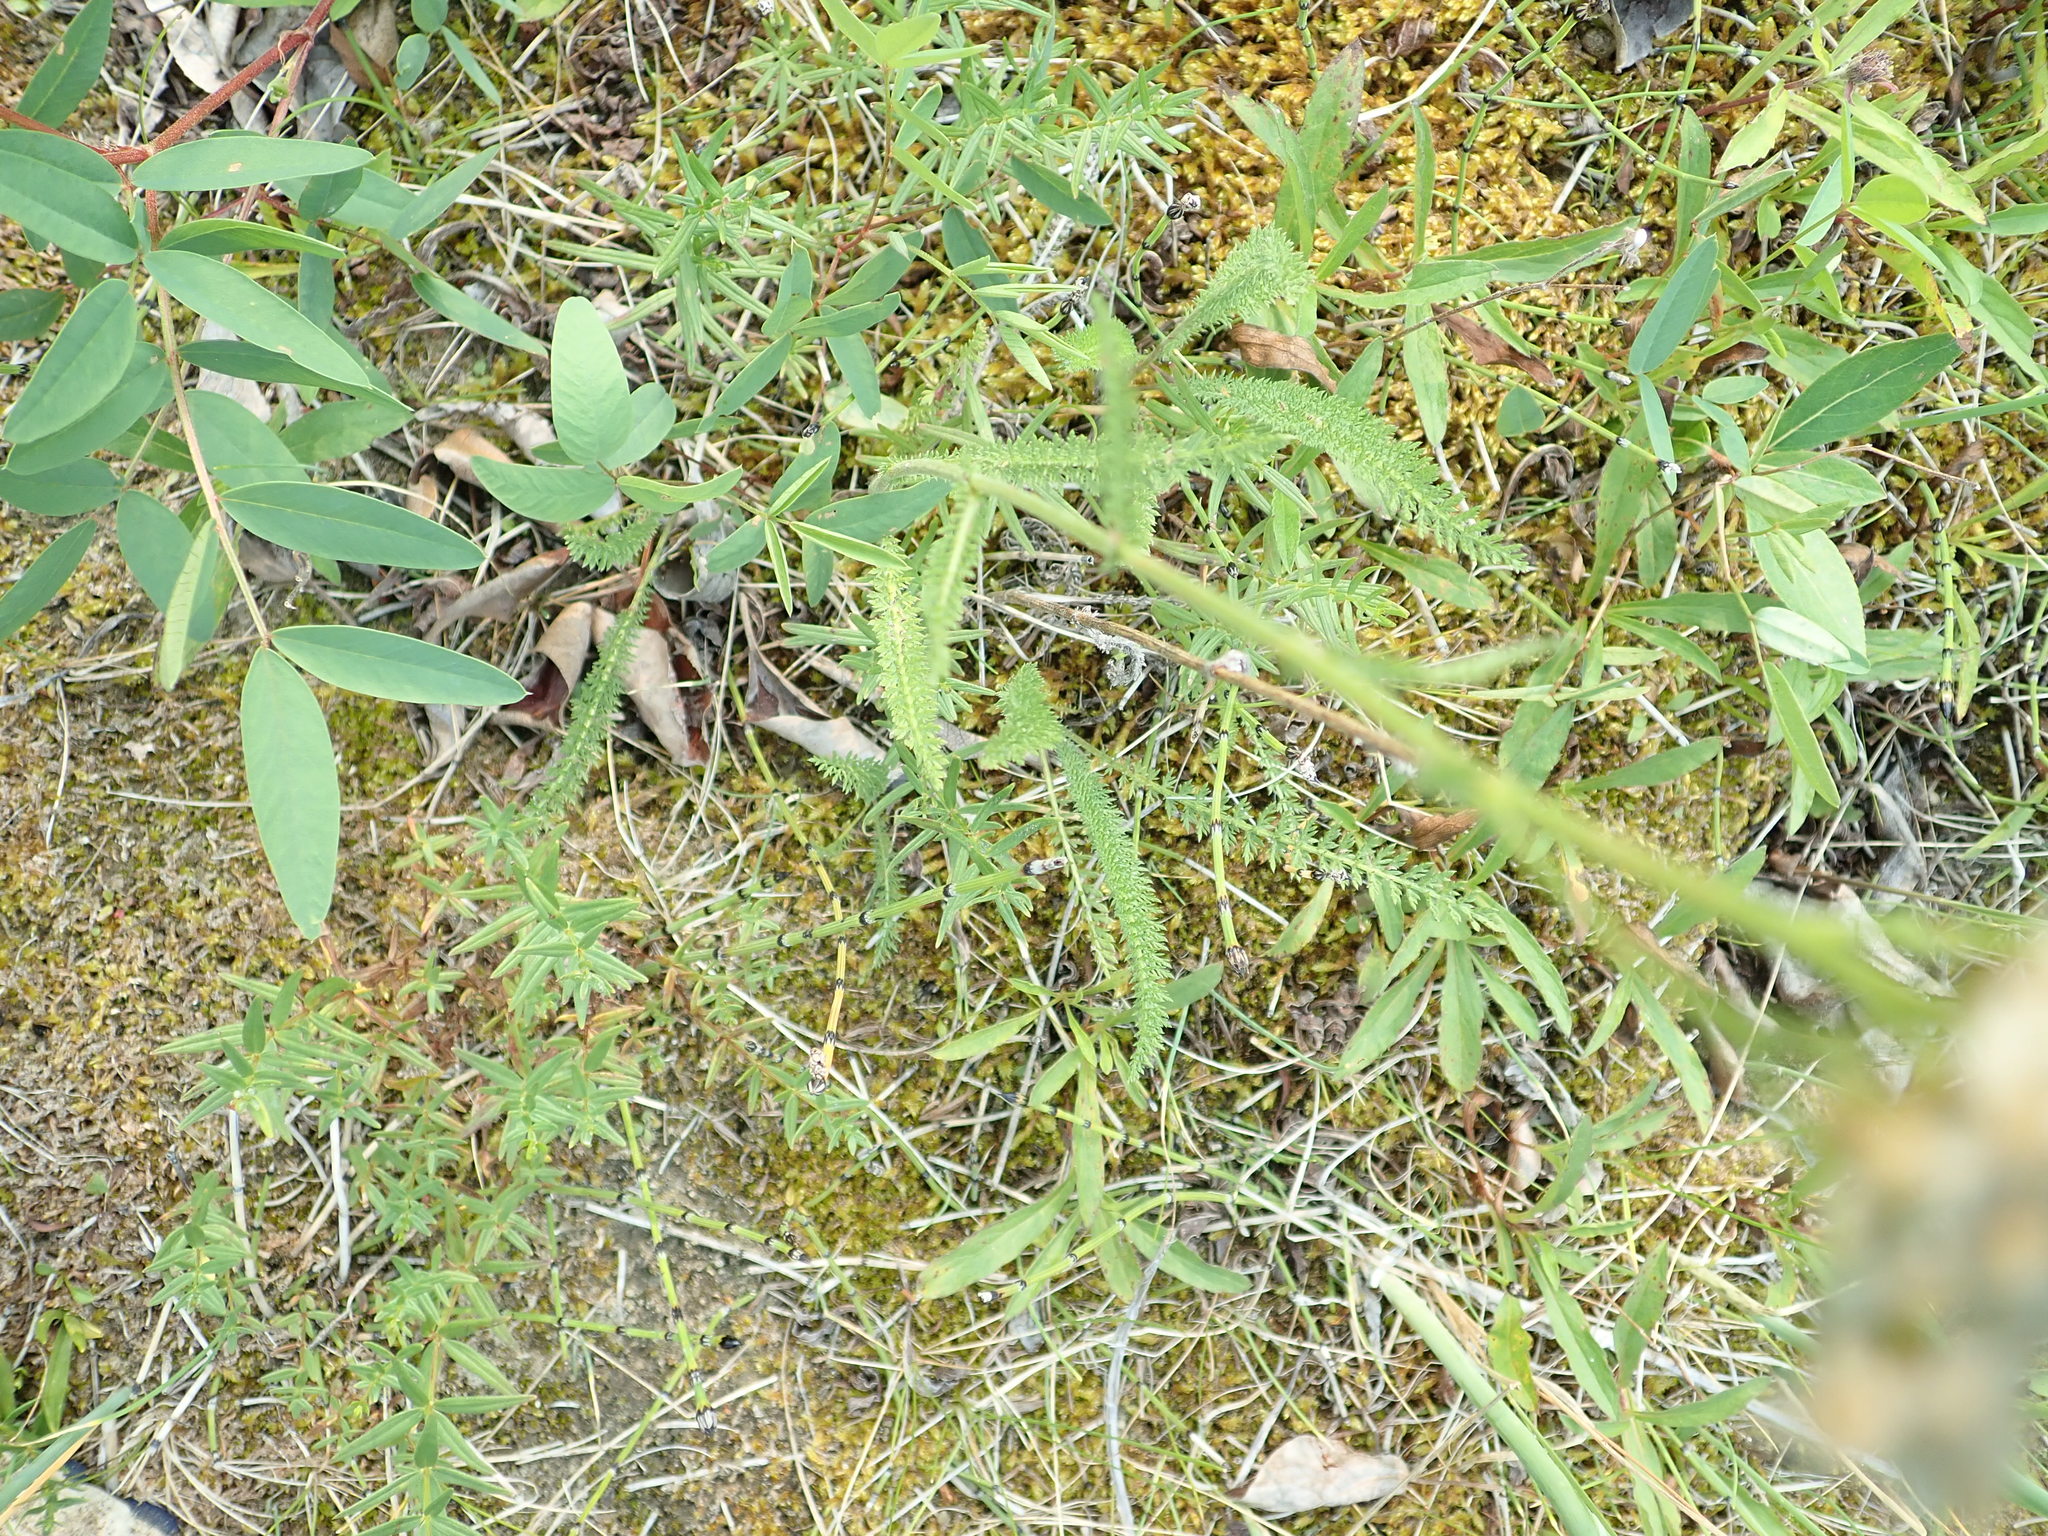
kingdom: Plantae
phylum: Tracheophyta
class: Magnoliopsida
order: Asterales
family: Asteraceae
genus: Achillea
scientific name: Achillea millefolium
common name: Yarrow
